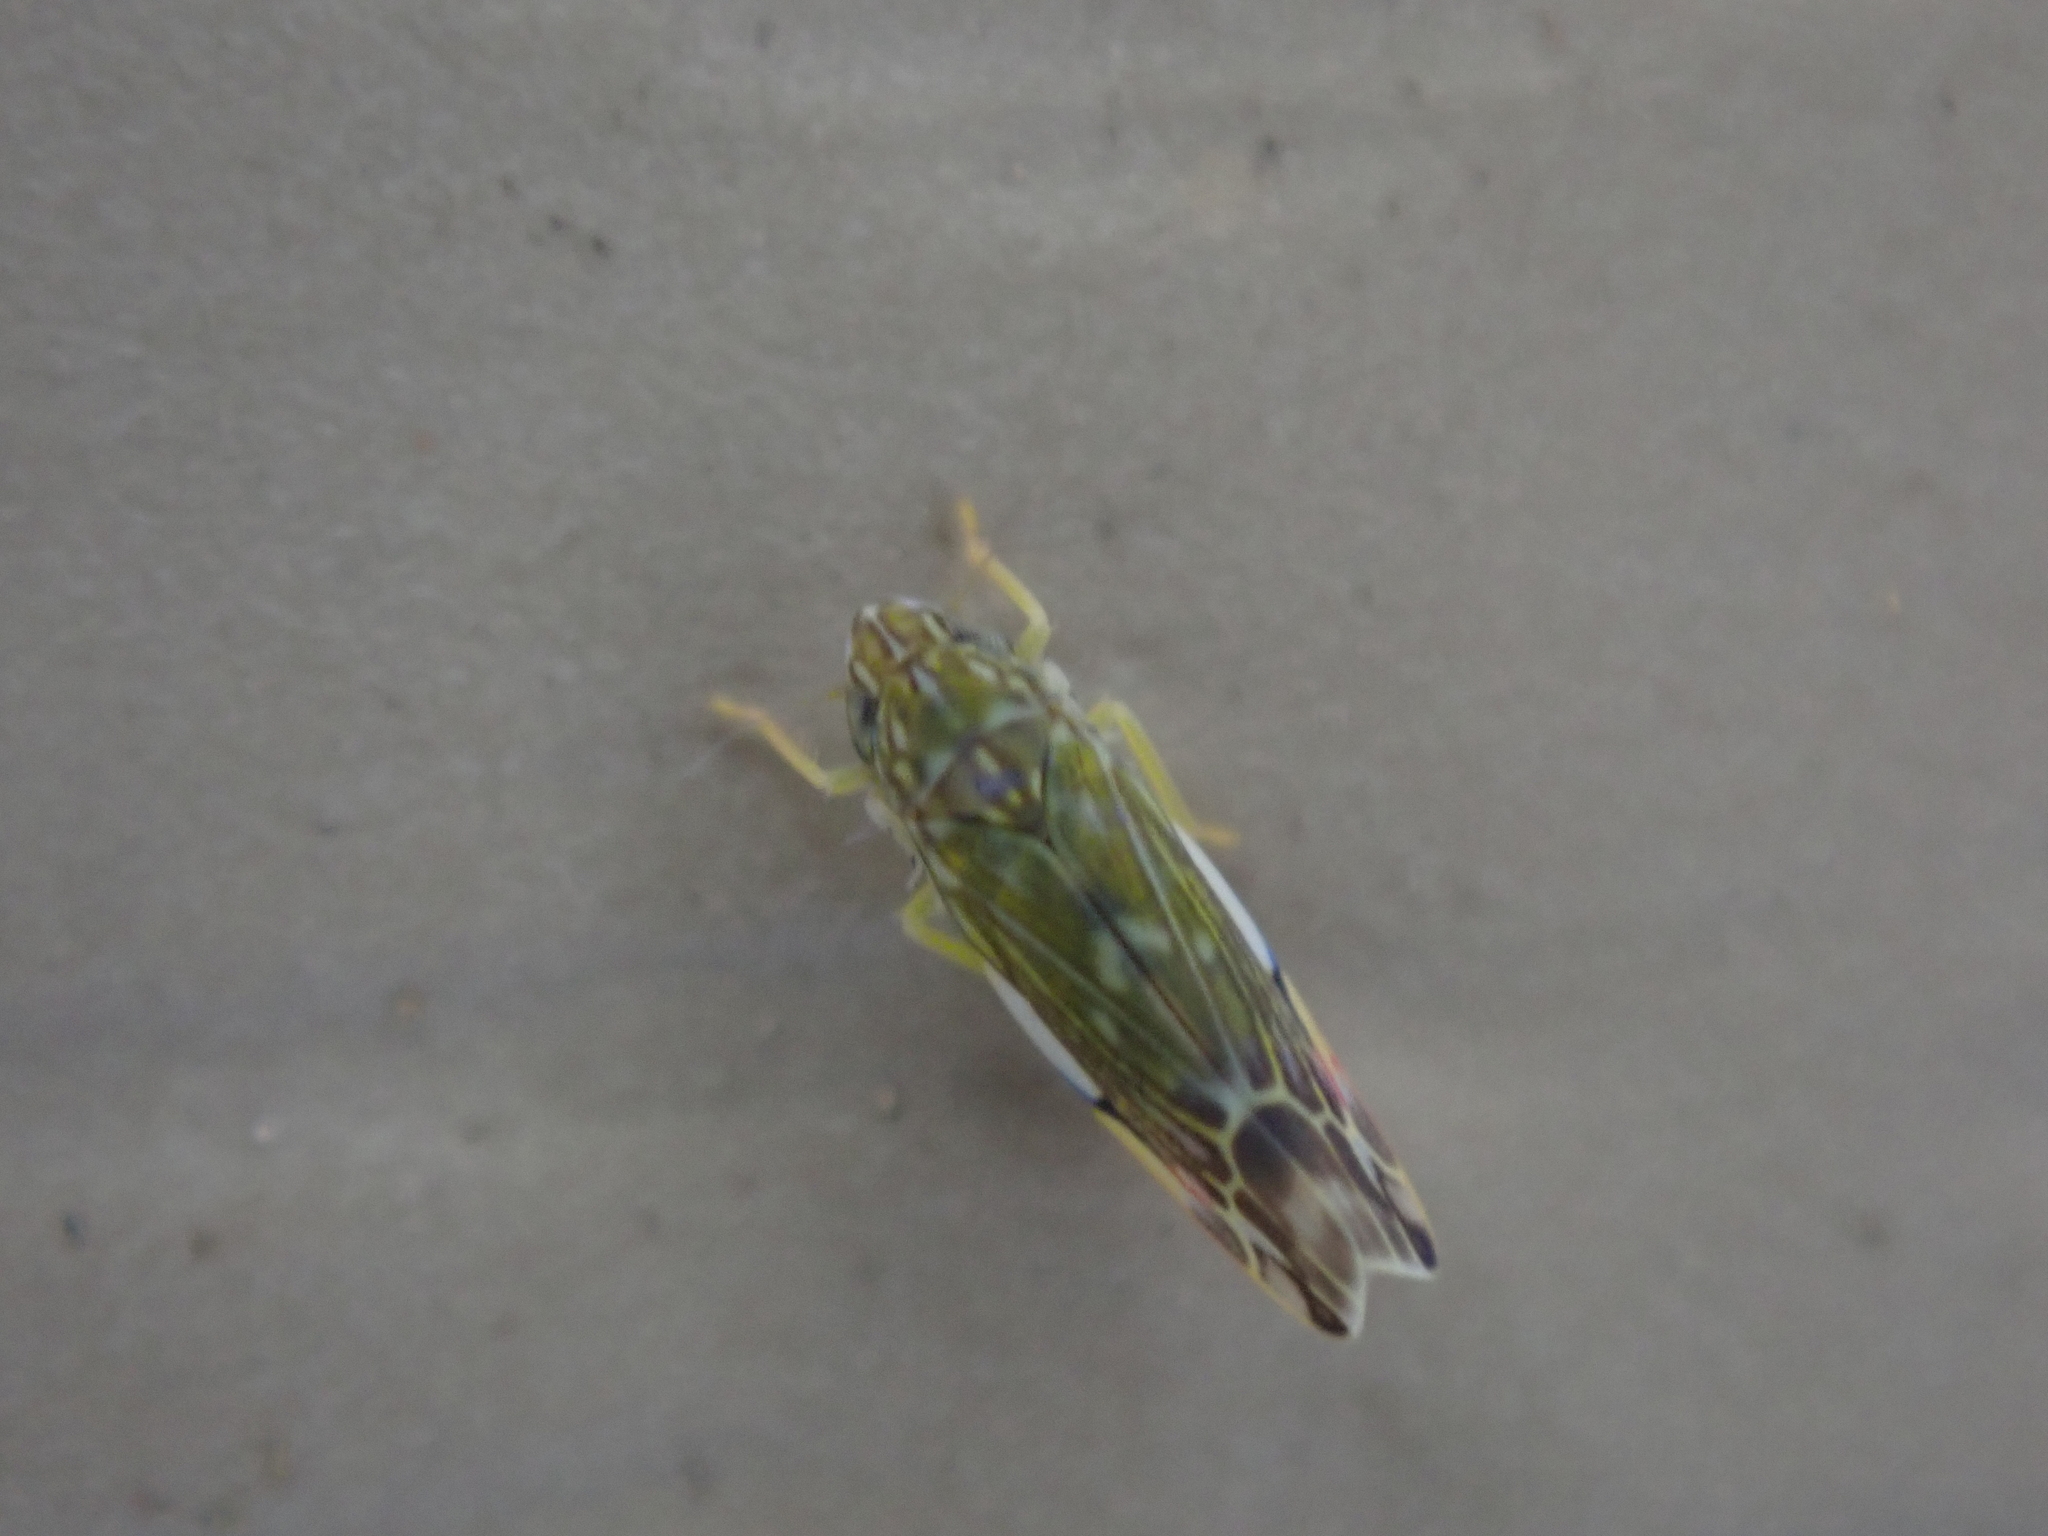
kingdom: Animalia
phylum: Arthropoda
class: Insecta
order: Hemiptera
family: Cicadellidae
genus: Erasmoneura
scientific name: Erasmoneura vulnerata
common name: The wounded leafhopper
